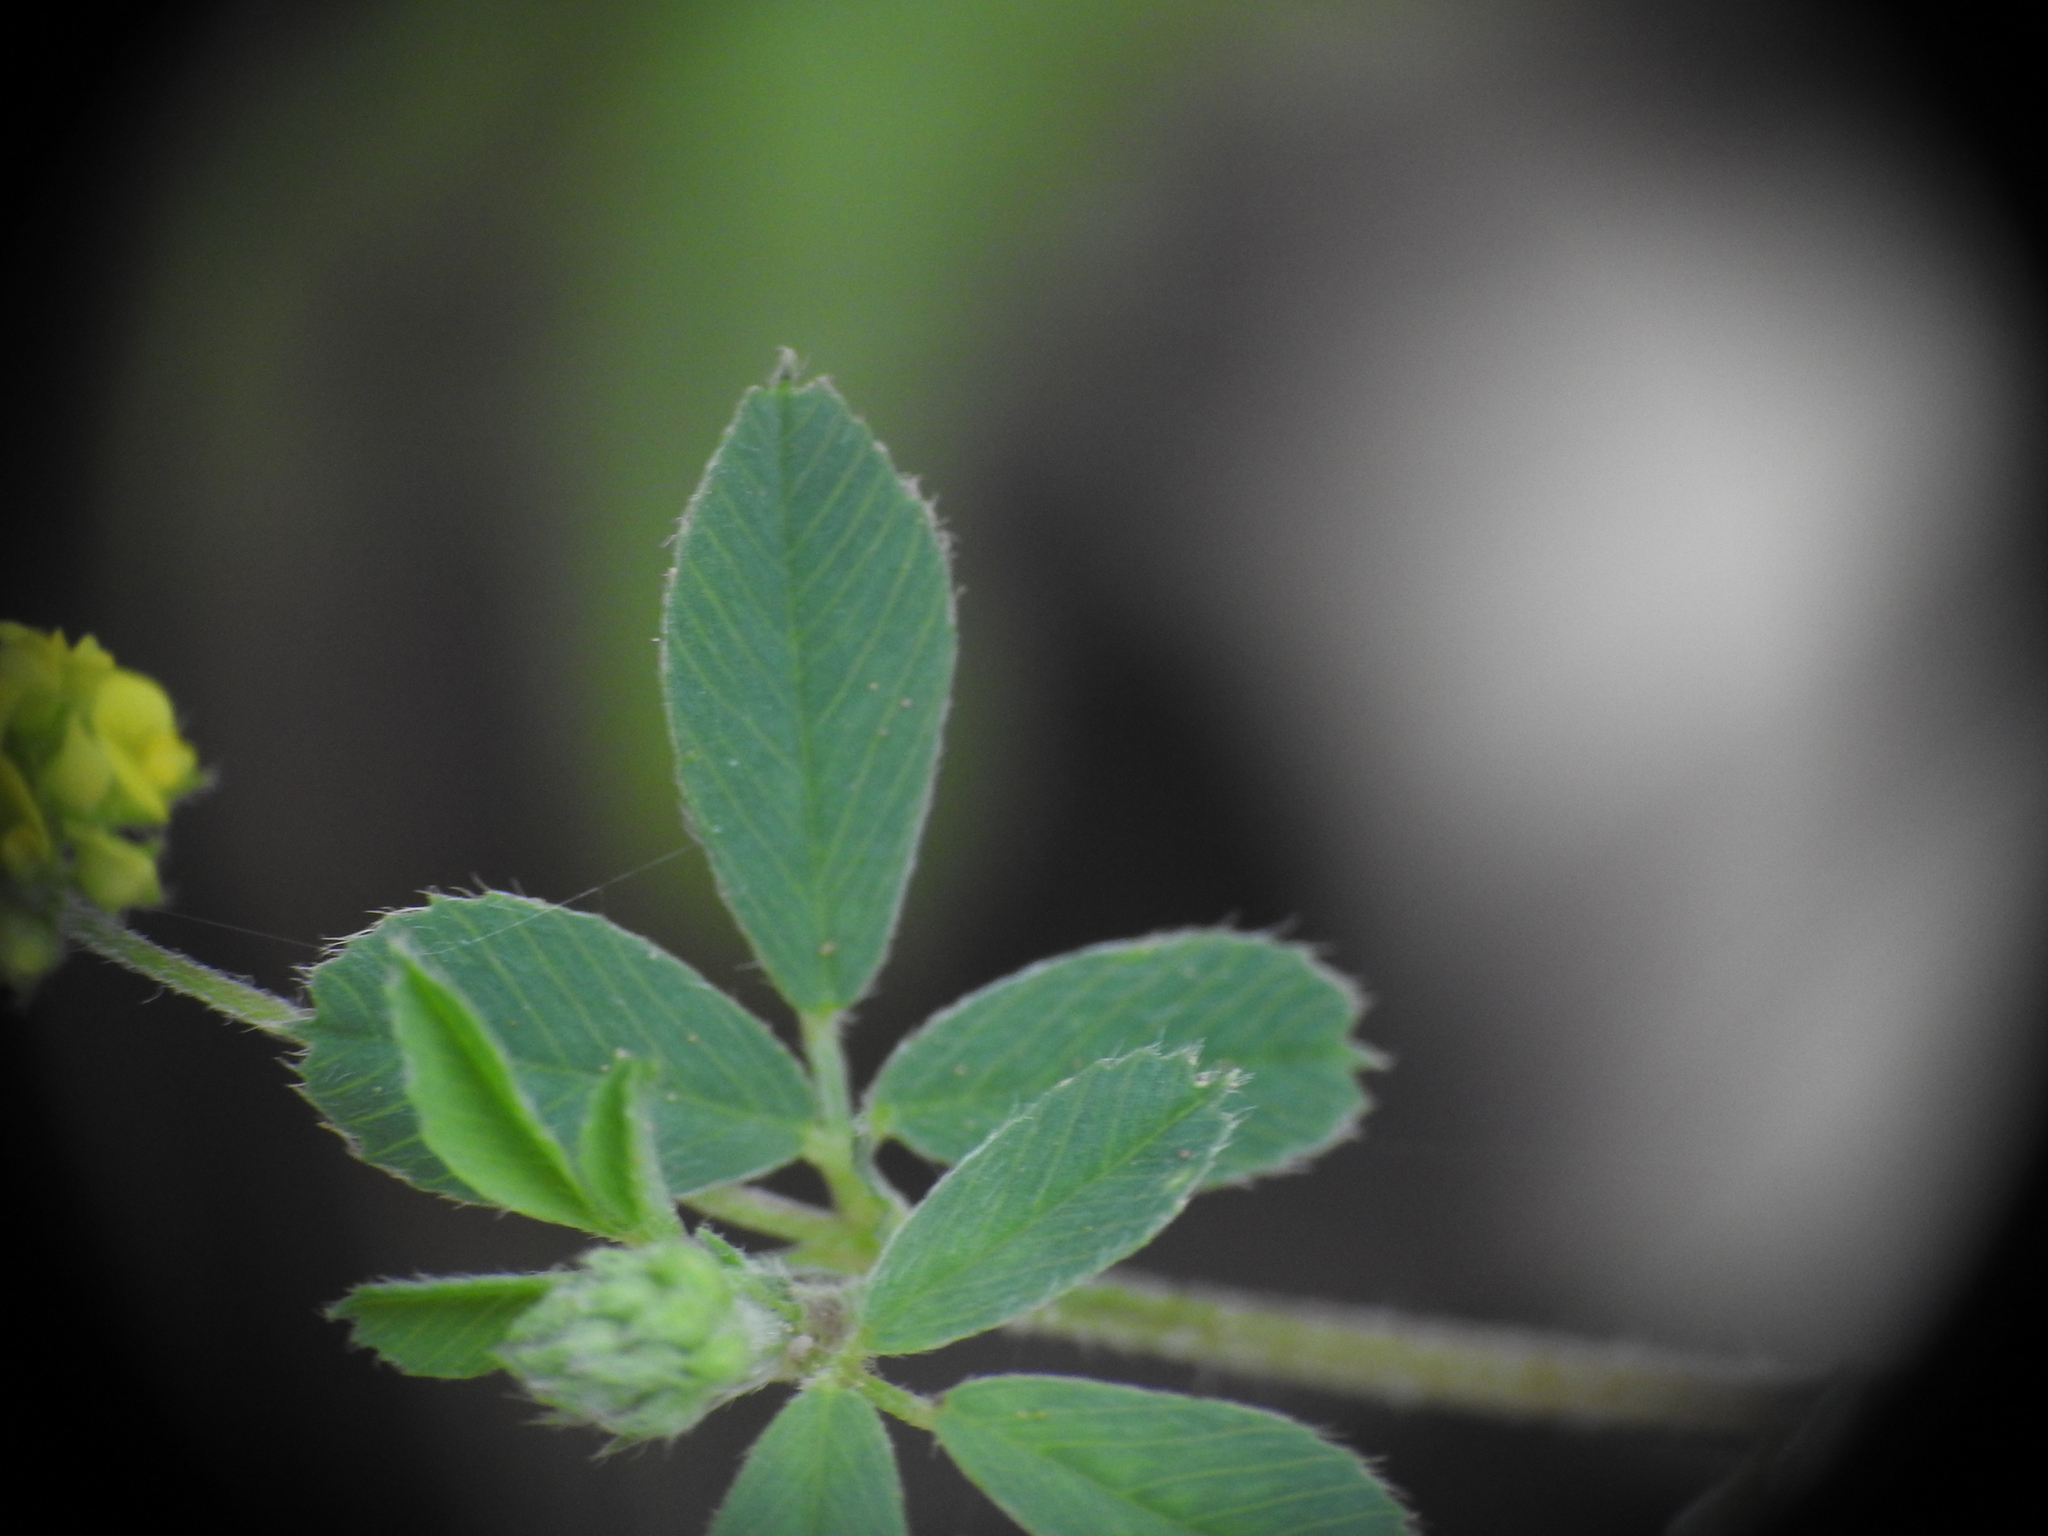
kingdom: Plantae
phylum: Tracheophyta
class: Magnoliopsida
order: Fabales
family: Fabaceae
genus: Medicago
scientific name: Medicago lupulina
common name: Black medick
